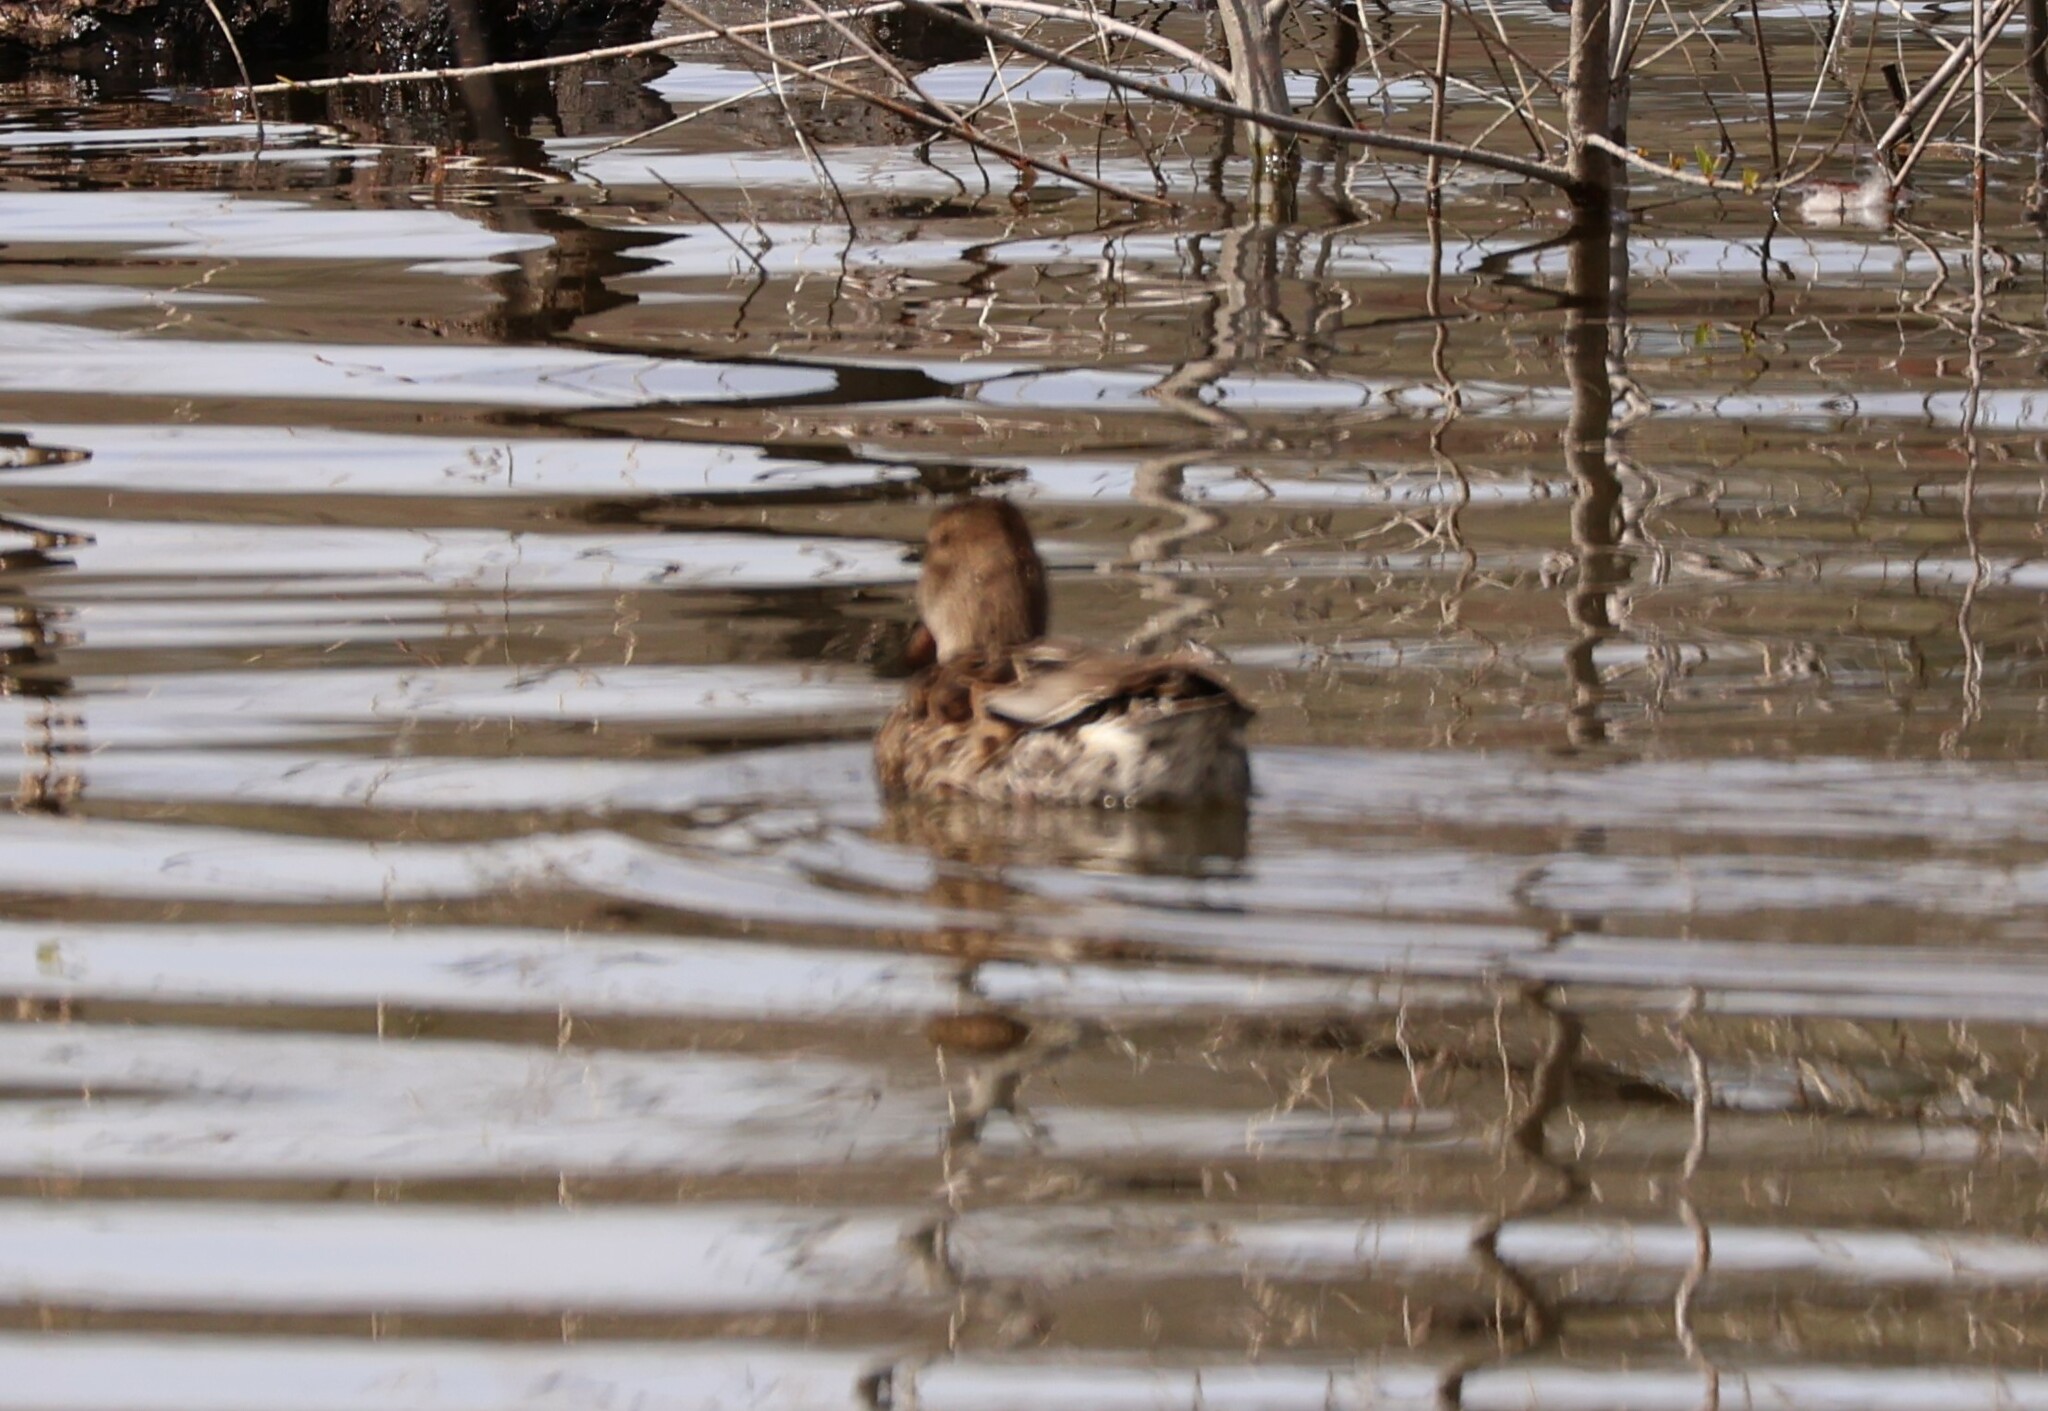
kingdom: Animalia
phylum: Chordata
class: Aves
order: Anseriformes
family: Anatidae
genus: Anas
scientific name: Anas crecca
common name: Eurasian teal
